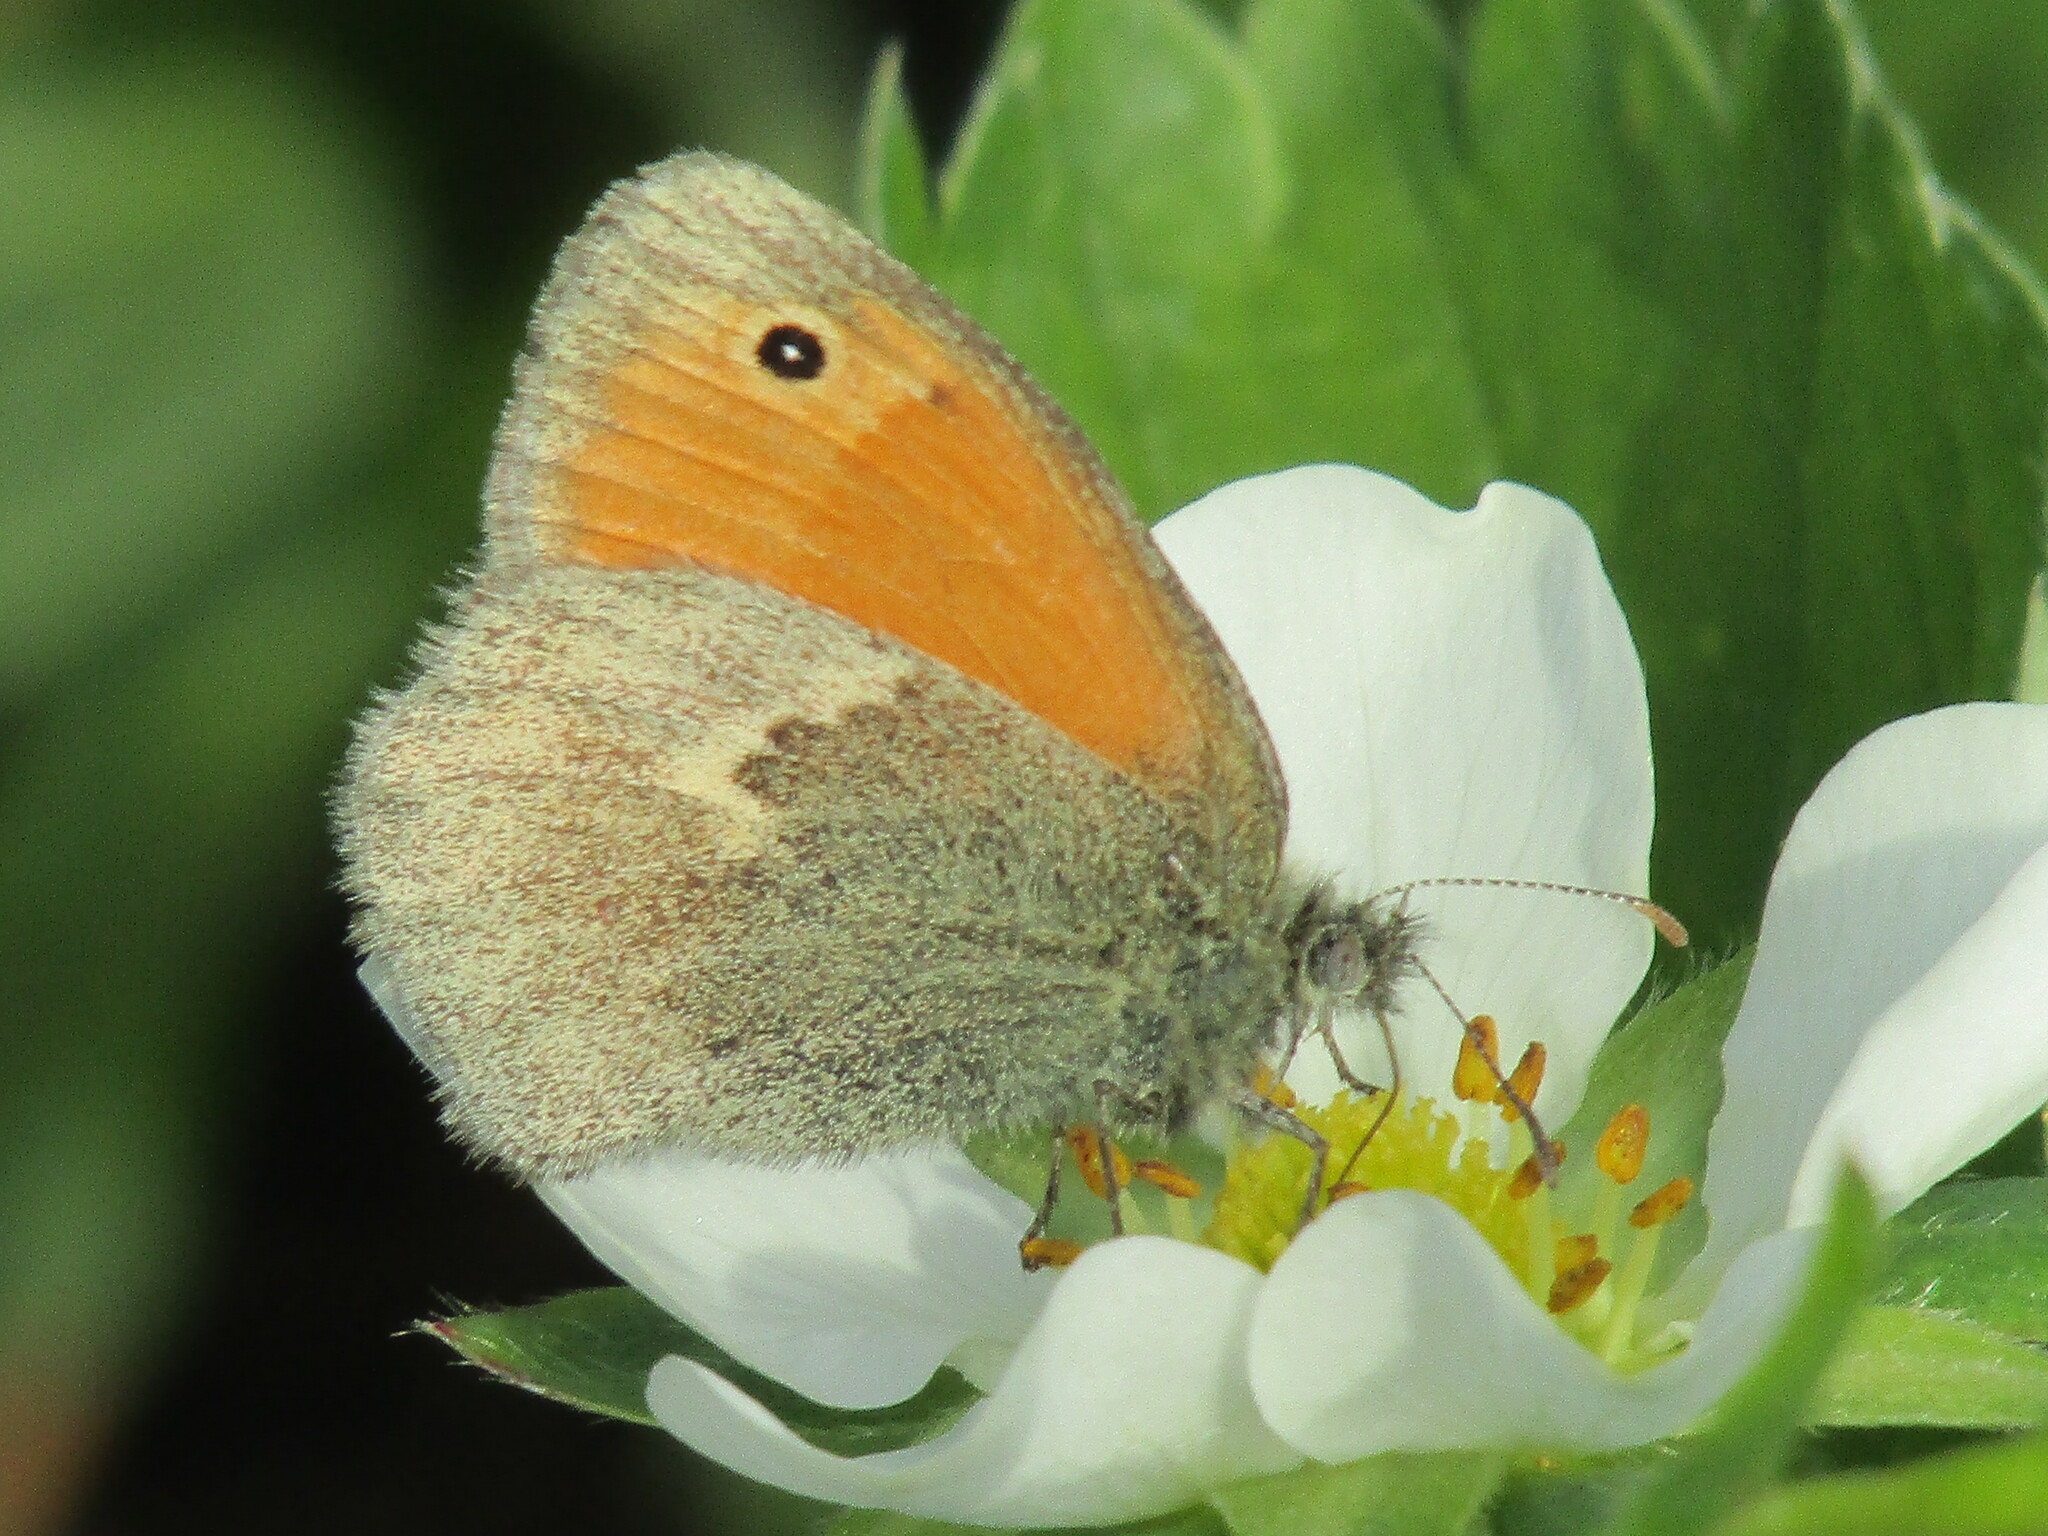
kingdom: Animalia
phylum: Arthropoda
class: Insecta
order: Lepidoptera
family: Nymphalidae
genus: Coenonympha
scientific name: Coenonympha pamphilus
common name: Small heath
